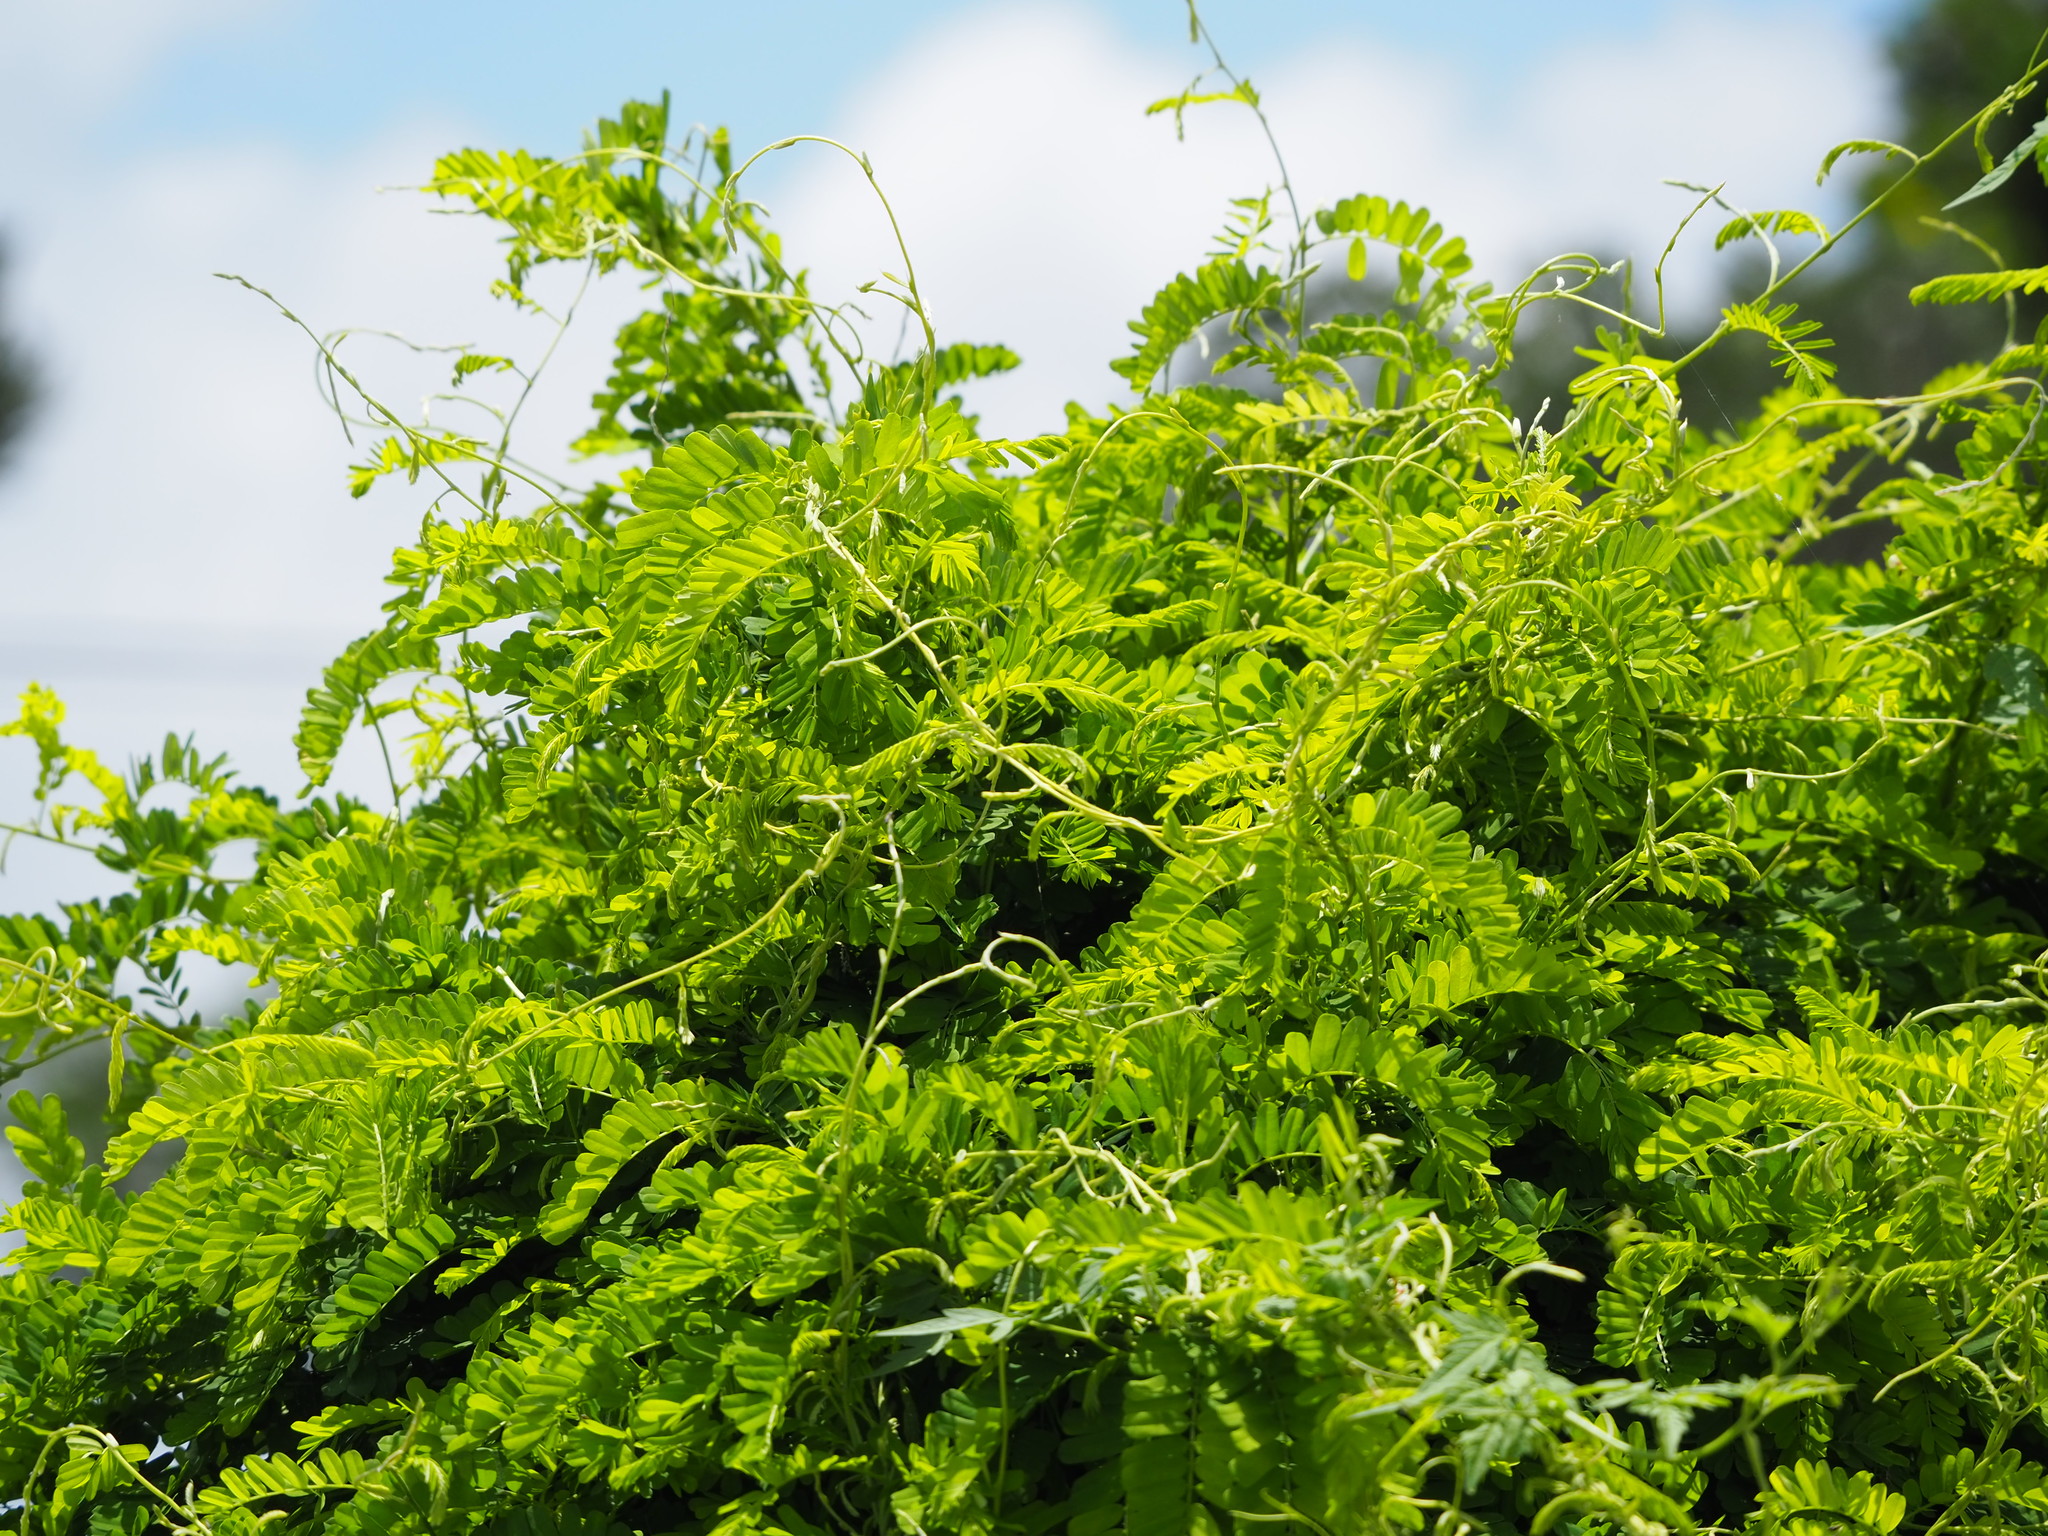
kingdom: Plantae
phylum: Tracheophyta
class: Magnoliopsida
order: Fabales
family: Fabaceae
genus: Abrus
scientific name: Abrus precatorius
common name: Rosarypea
